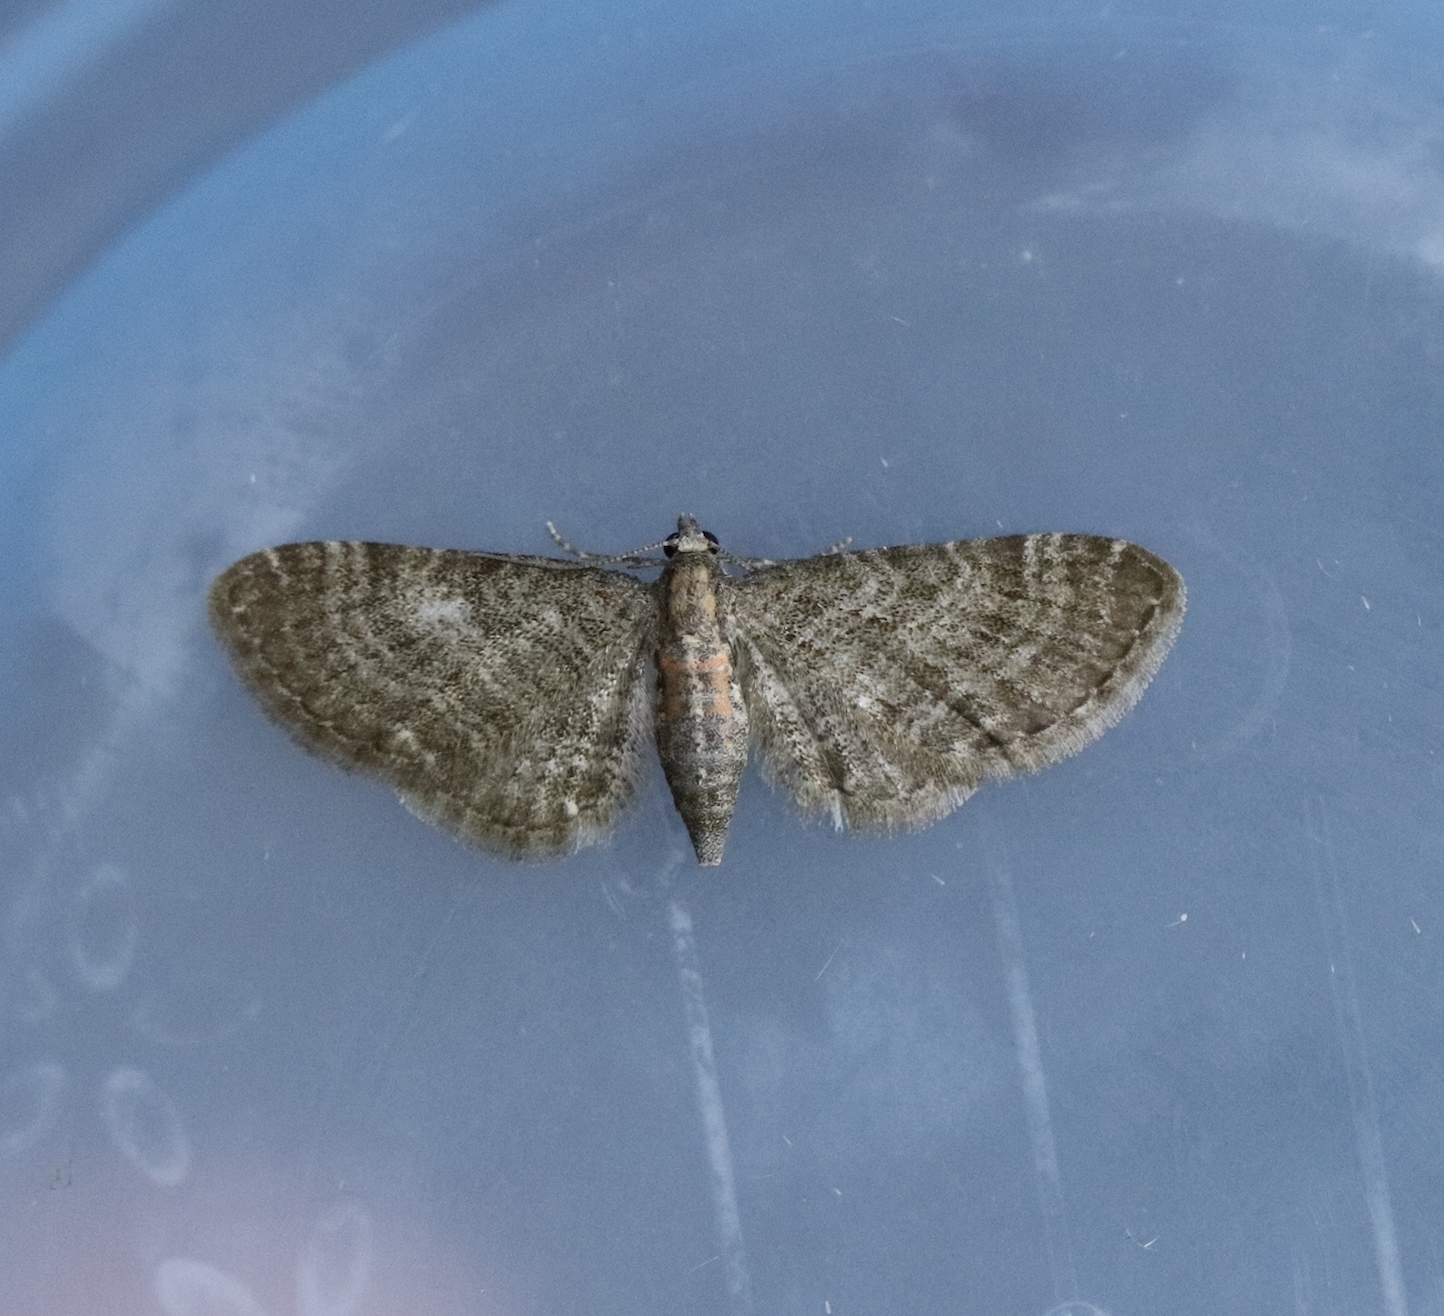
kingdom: Animalia
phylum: Arthropoda
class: Insecta
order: Lepidoptera
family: Geometridae
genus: Eupithecia
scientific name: Eupithecia haworthiata
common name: Haworth's pug
